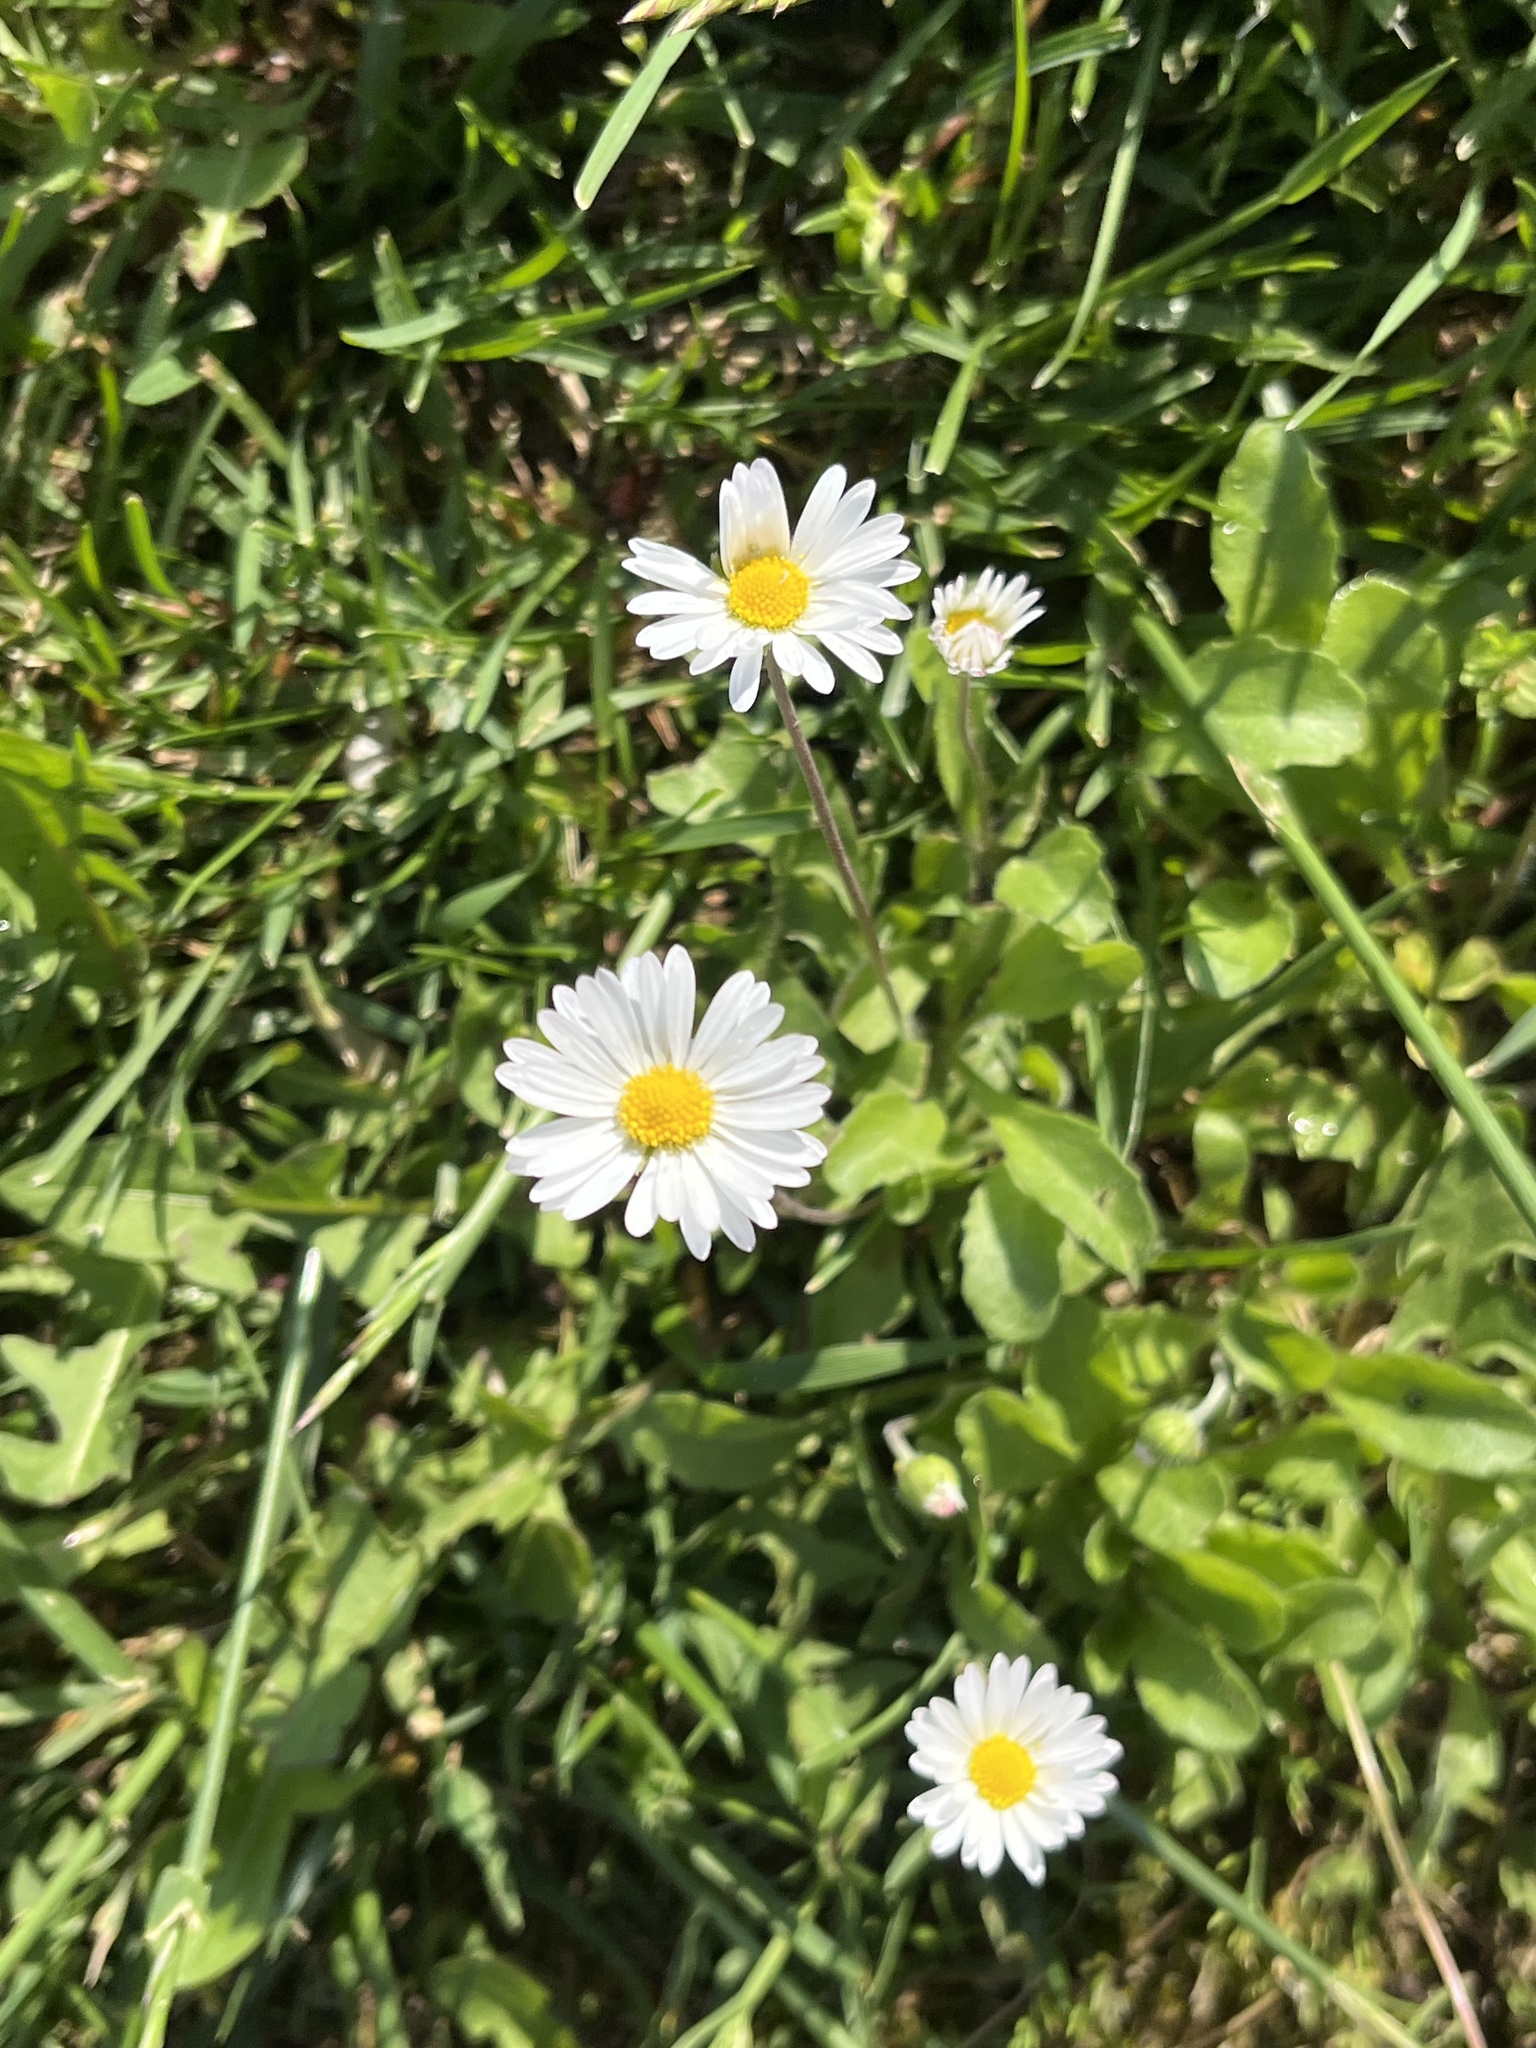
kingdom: Plantae
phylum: Tracheophyta
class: Magnoliopsida
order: Asterales
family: Asteraceae
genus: Bellis
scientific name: Bellis perennis
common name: Lawndaisy
